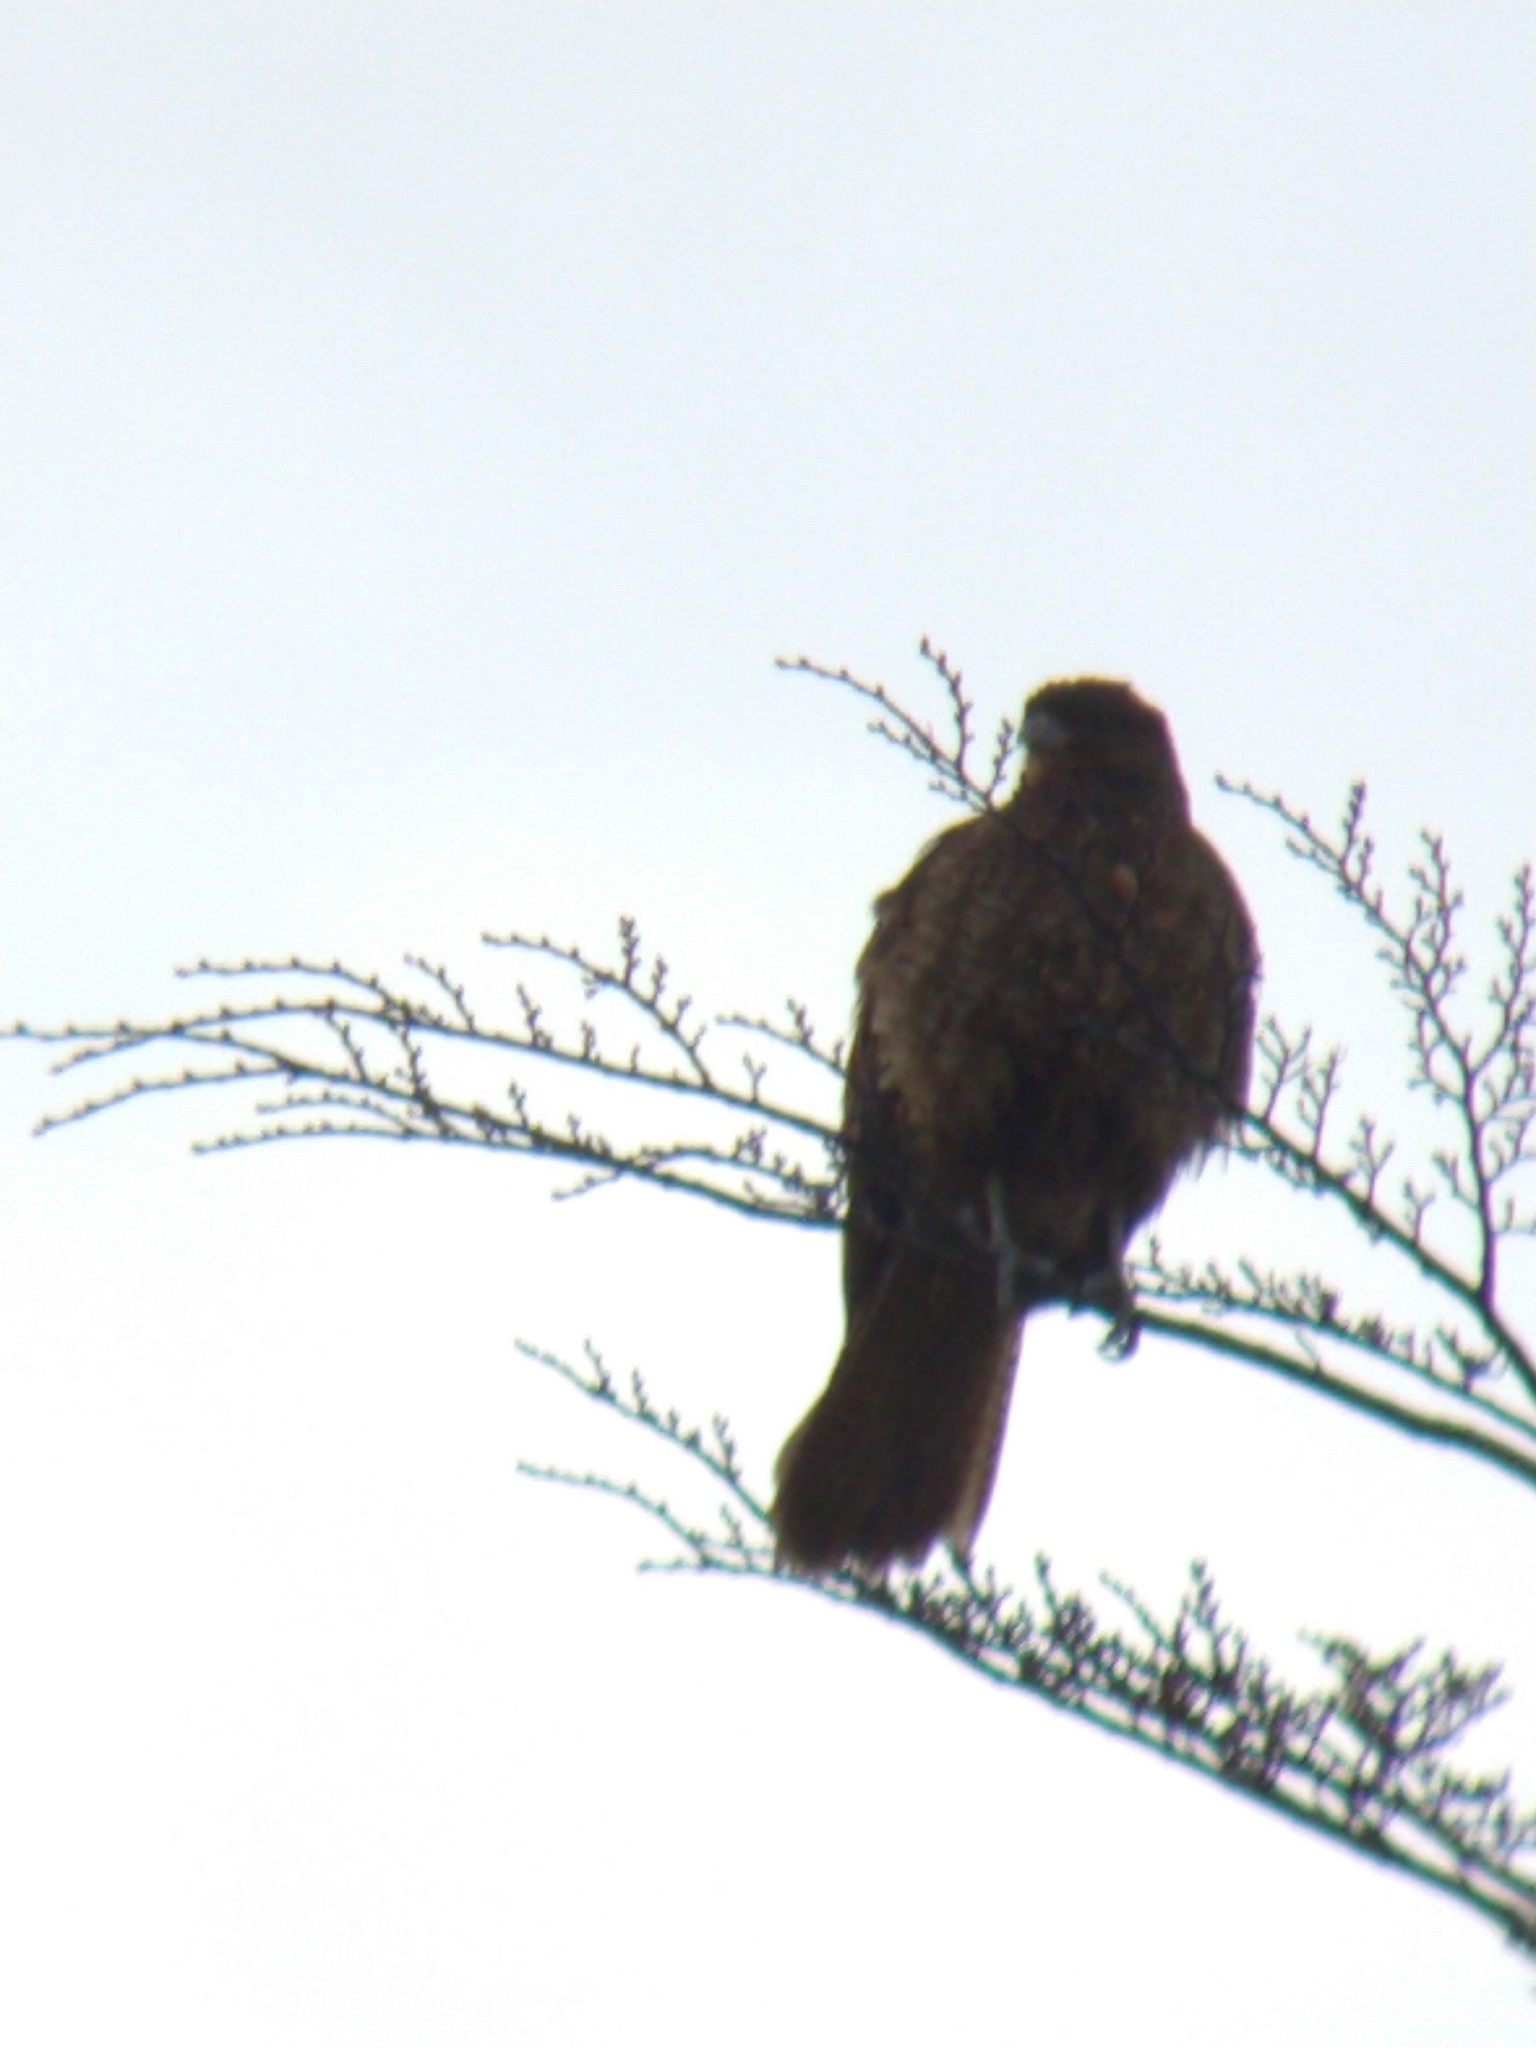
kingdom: Animalia
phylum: Chordata
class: Aves
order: Falconiformes
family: Falconidae
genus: Daptrius
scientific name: Daptrius
